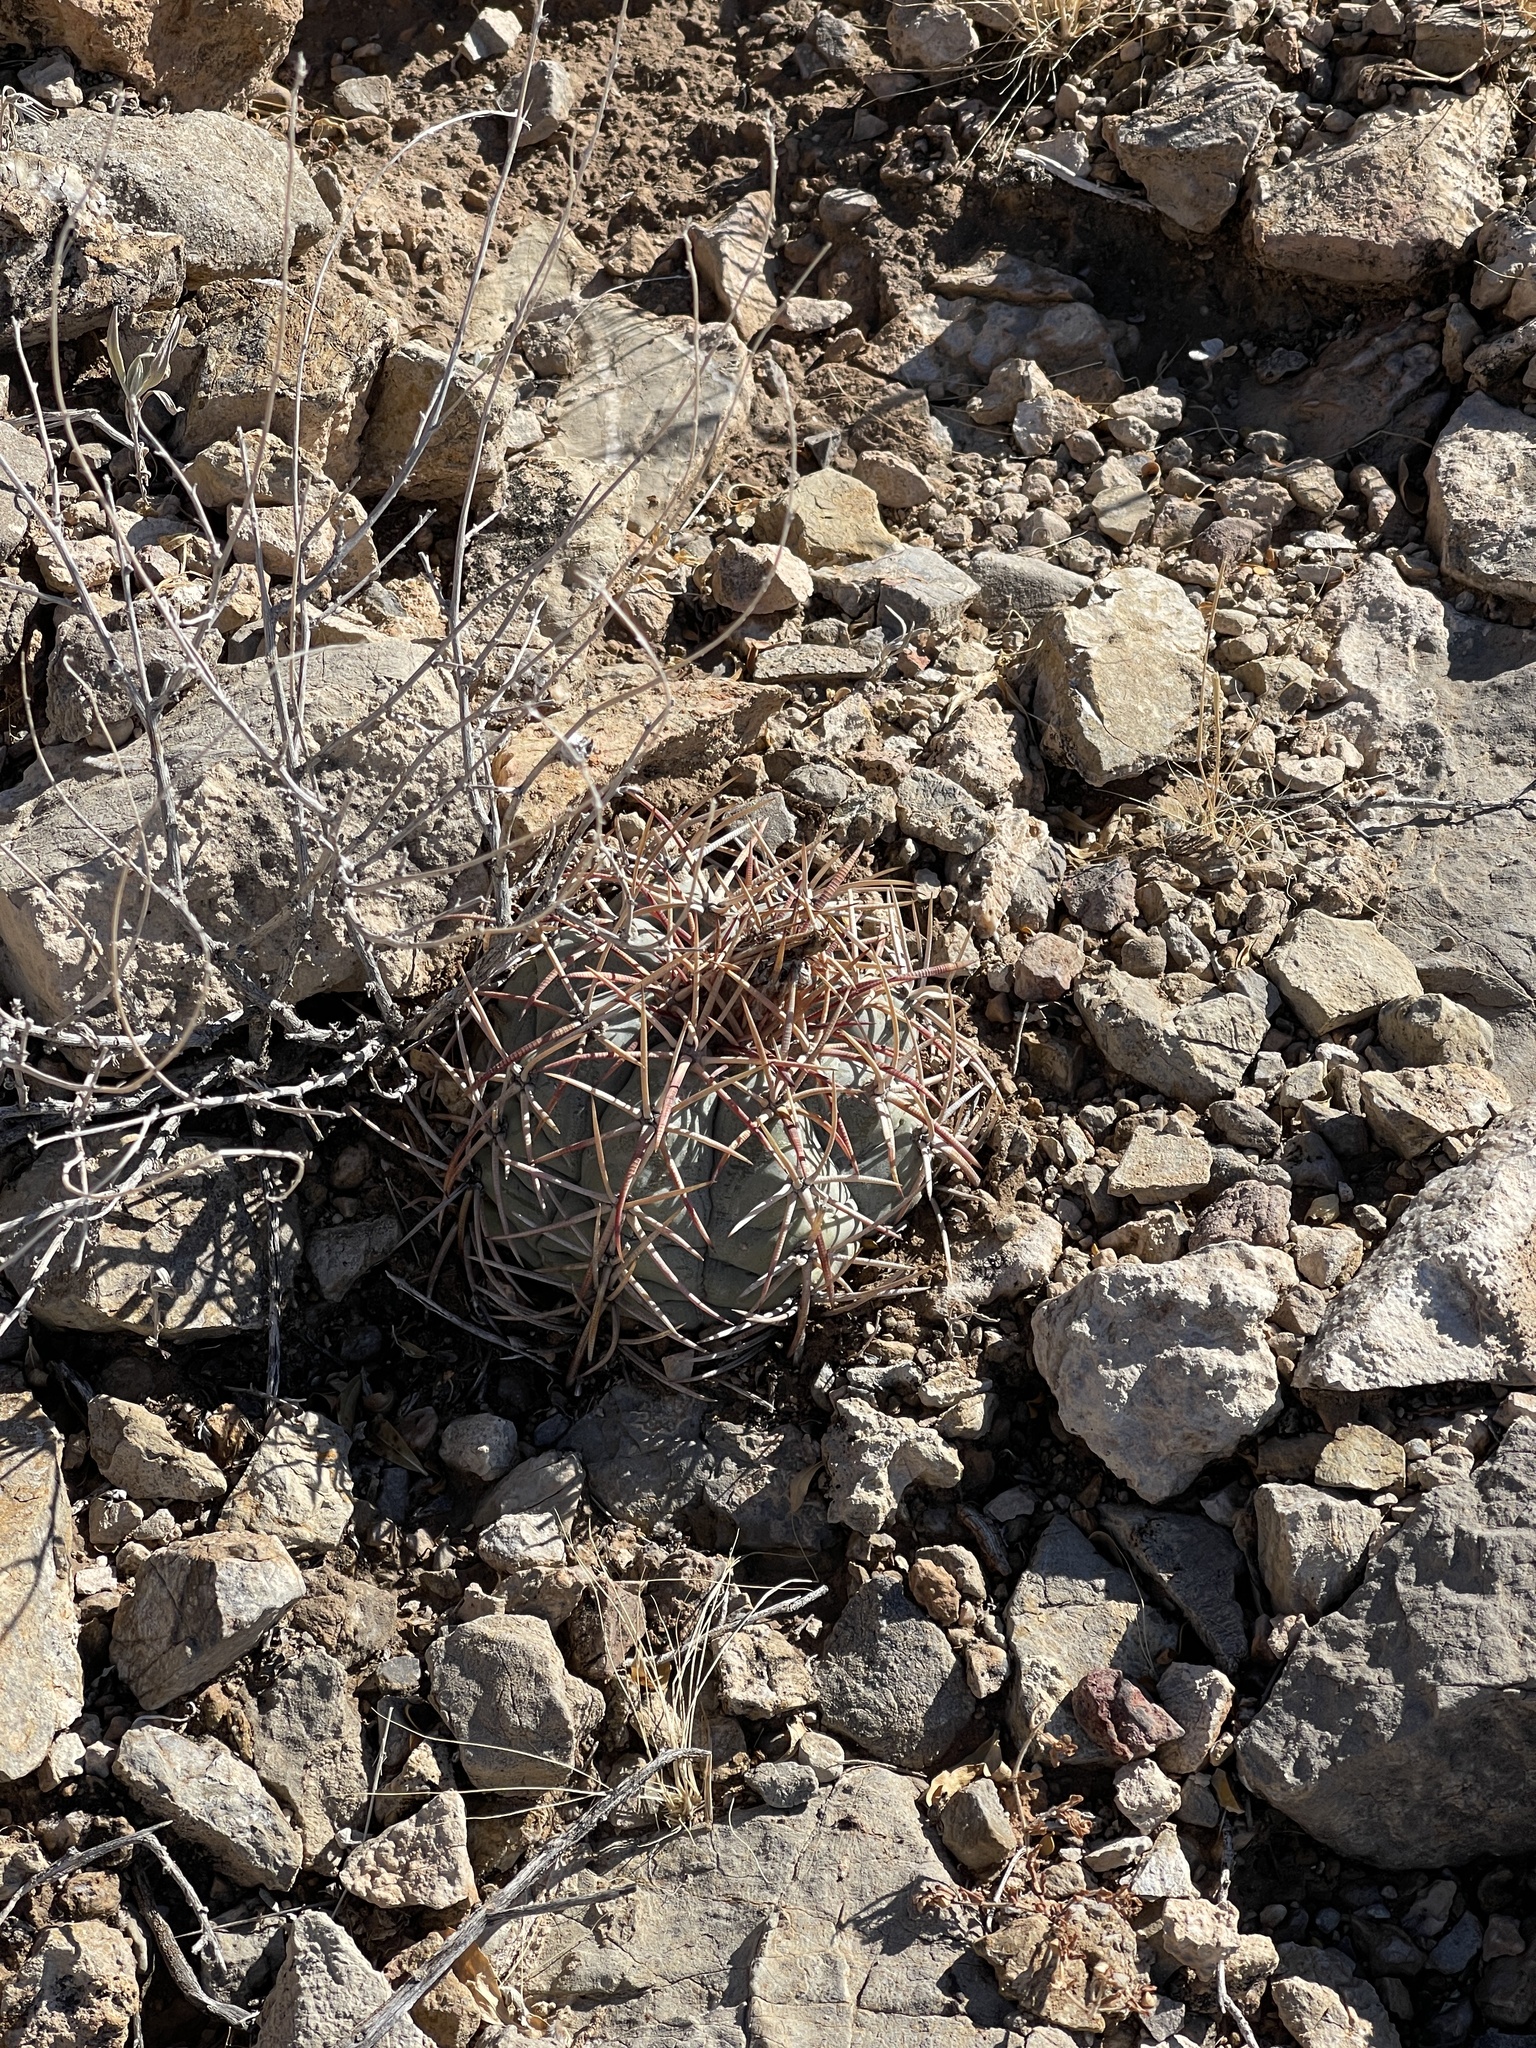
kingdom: Plantae
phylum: Tracheophyta
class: Magnoliopsida
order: Caryophyllales
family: Cactaceae
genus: Echinocactus
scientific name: Echinocactus horizonthalonius
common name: Devilshead
